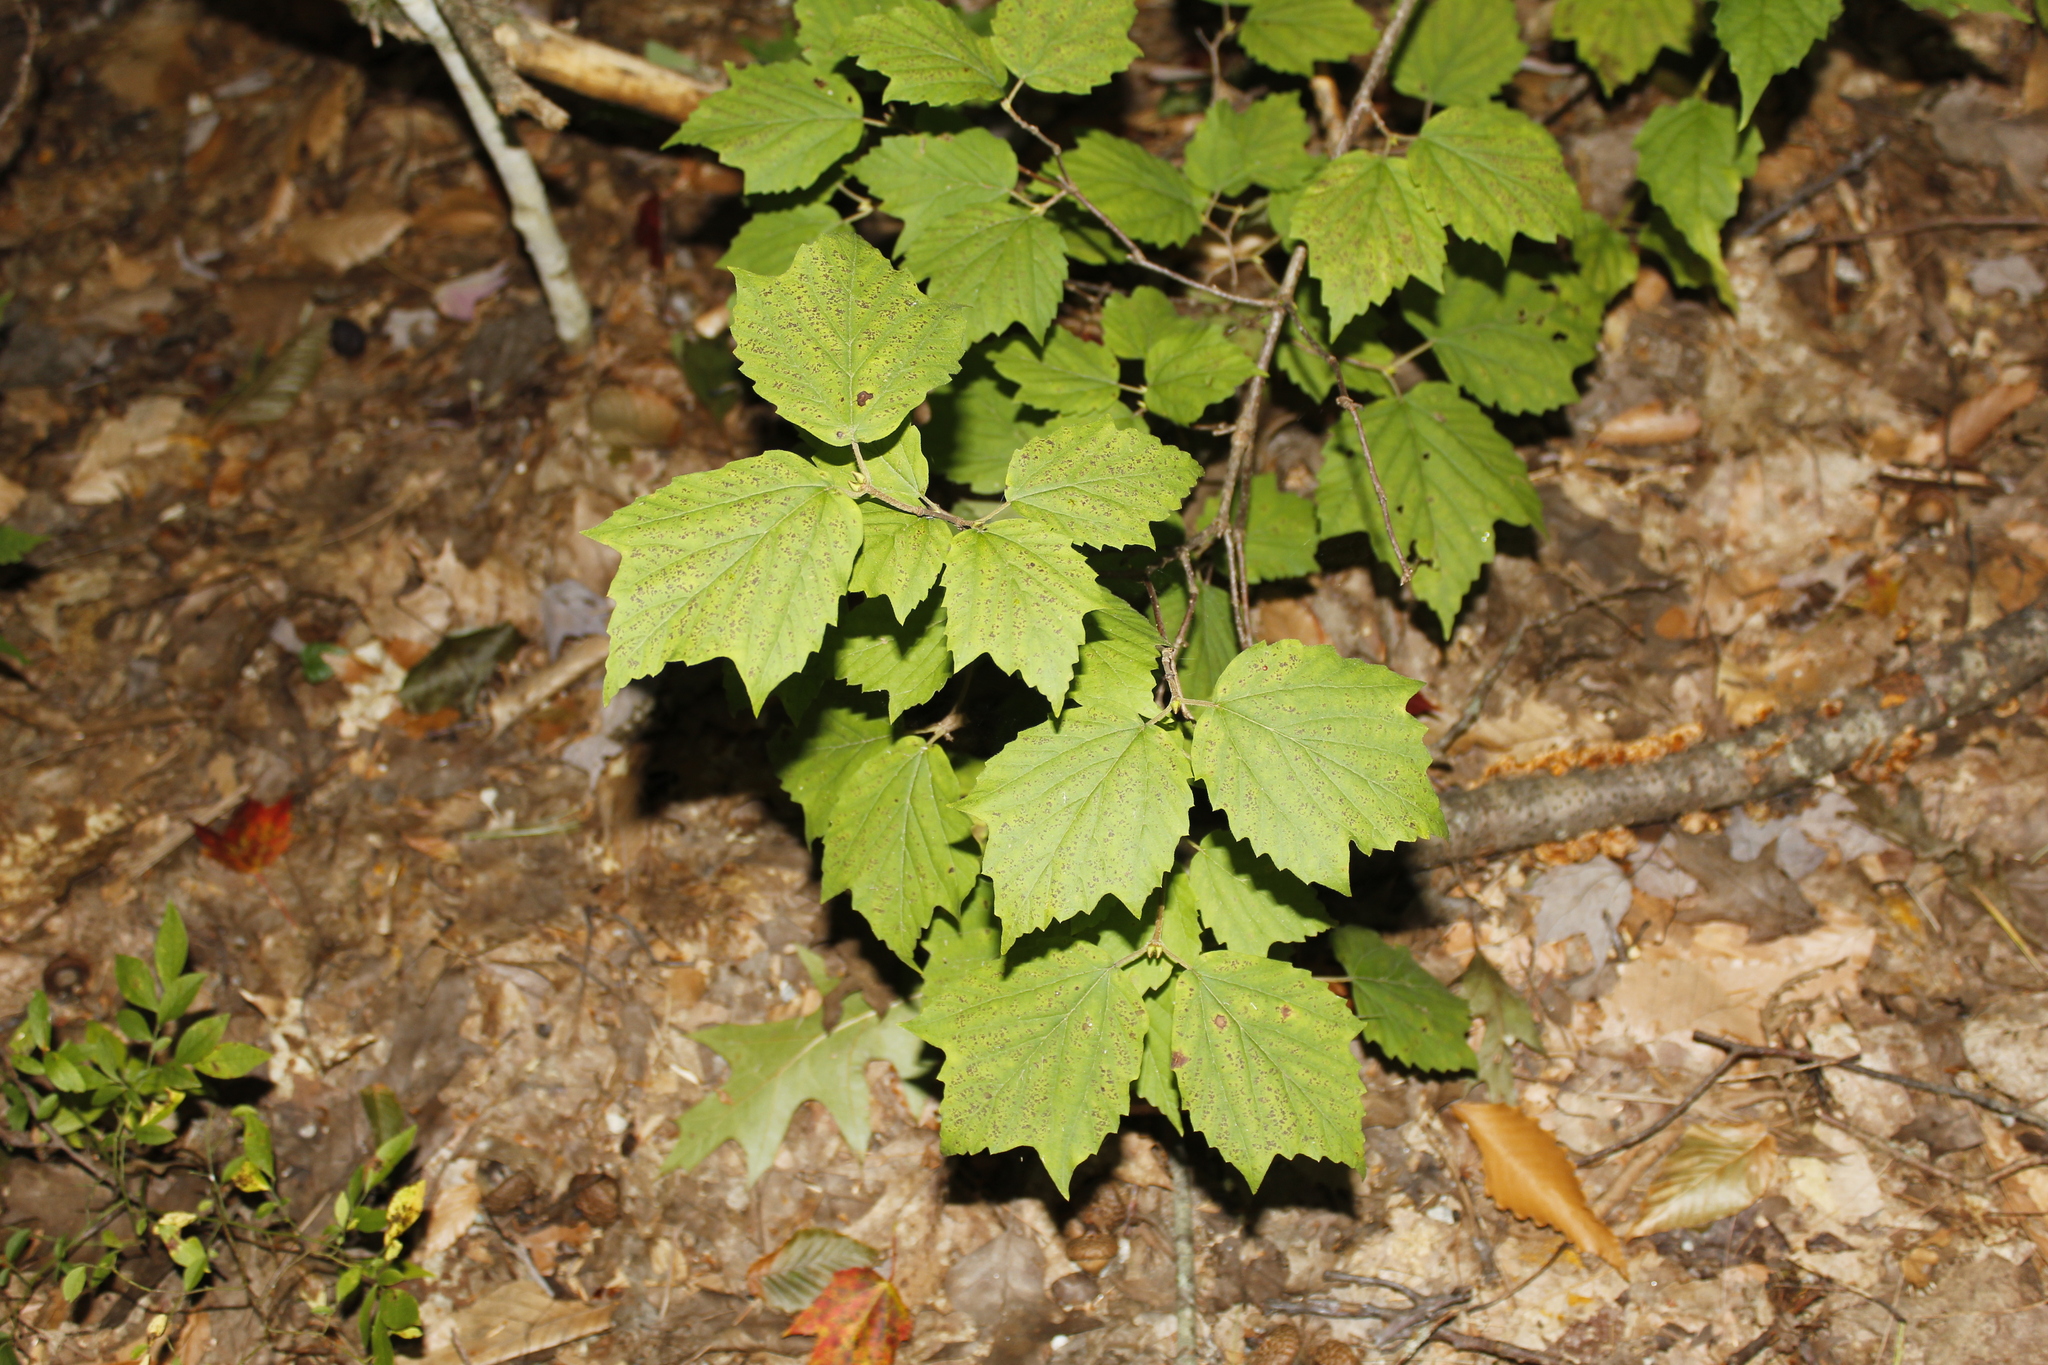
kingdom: Plantae
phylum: Tracheophyta
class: Magnoliopsida
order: Dipsacales
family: Viburnaceae
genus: Viburnum
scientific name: Viburnum acerifolium
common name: Dockmackie
